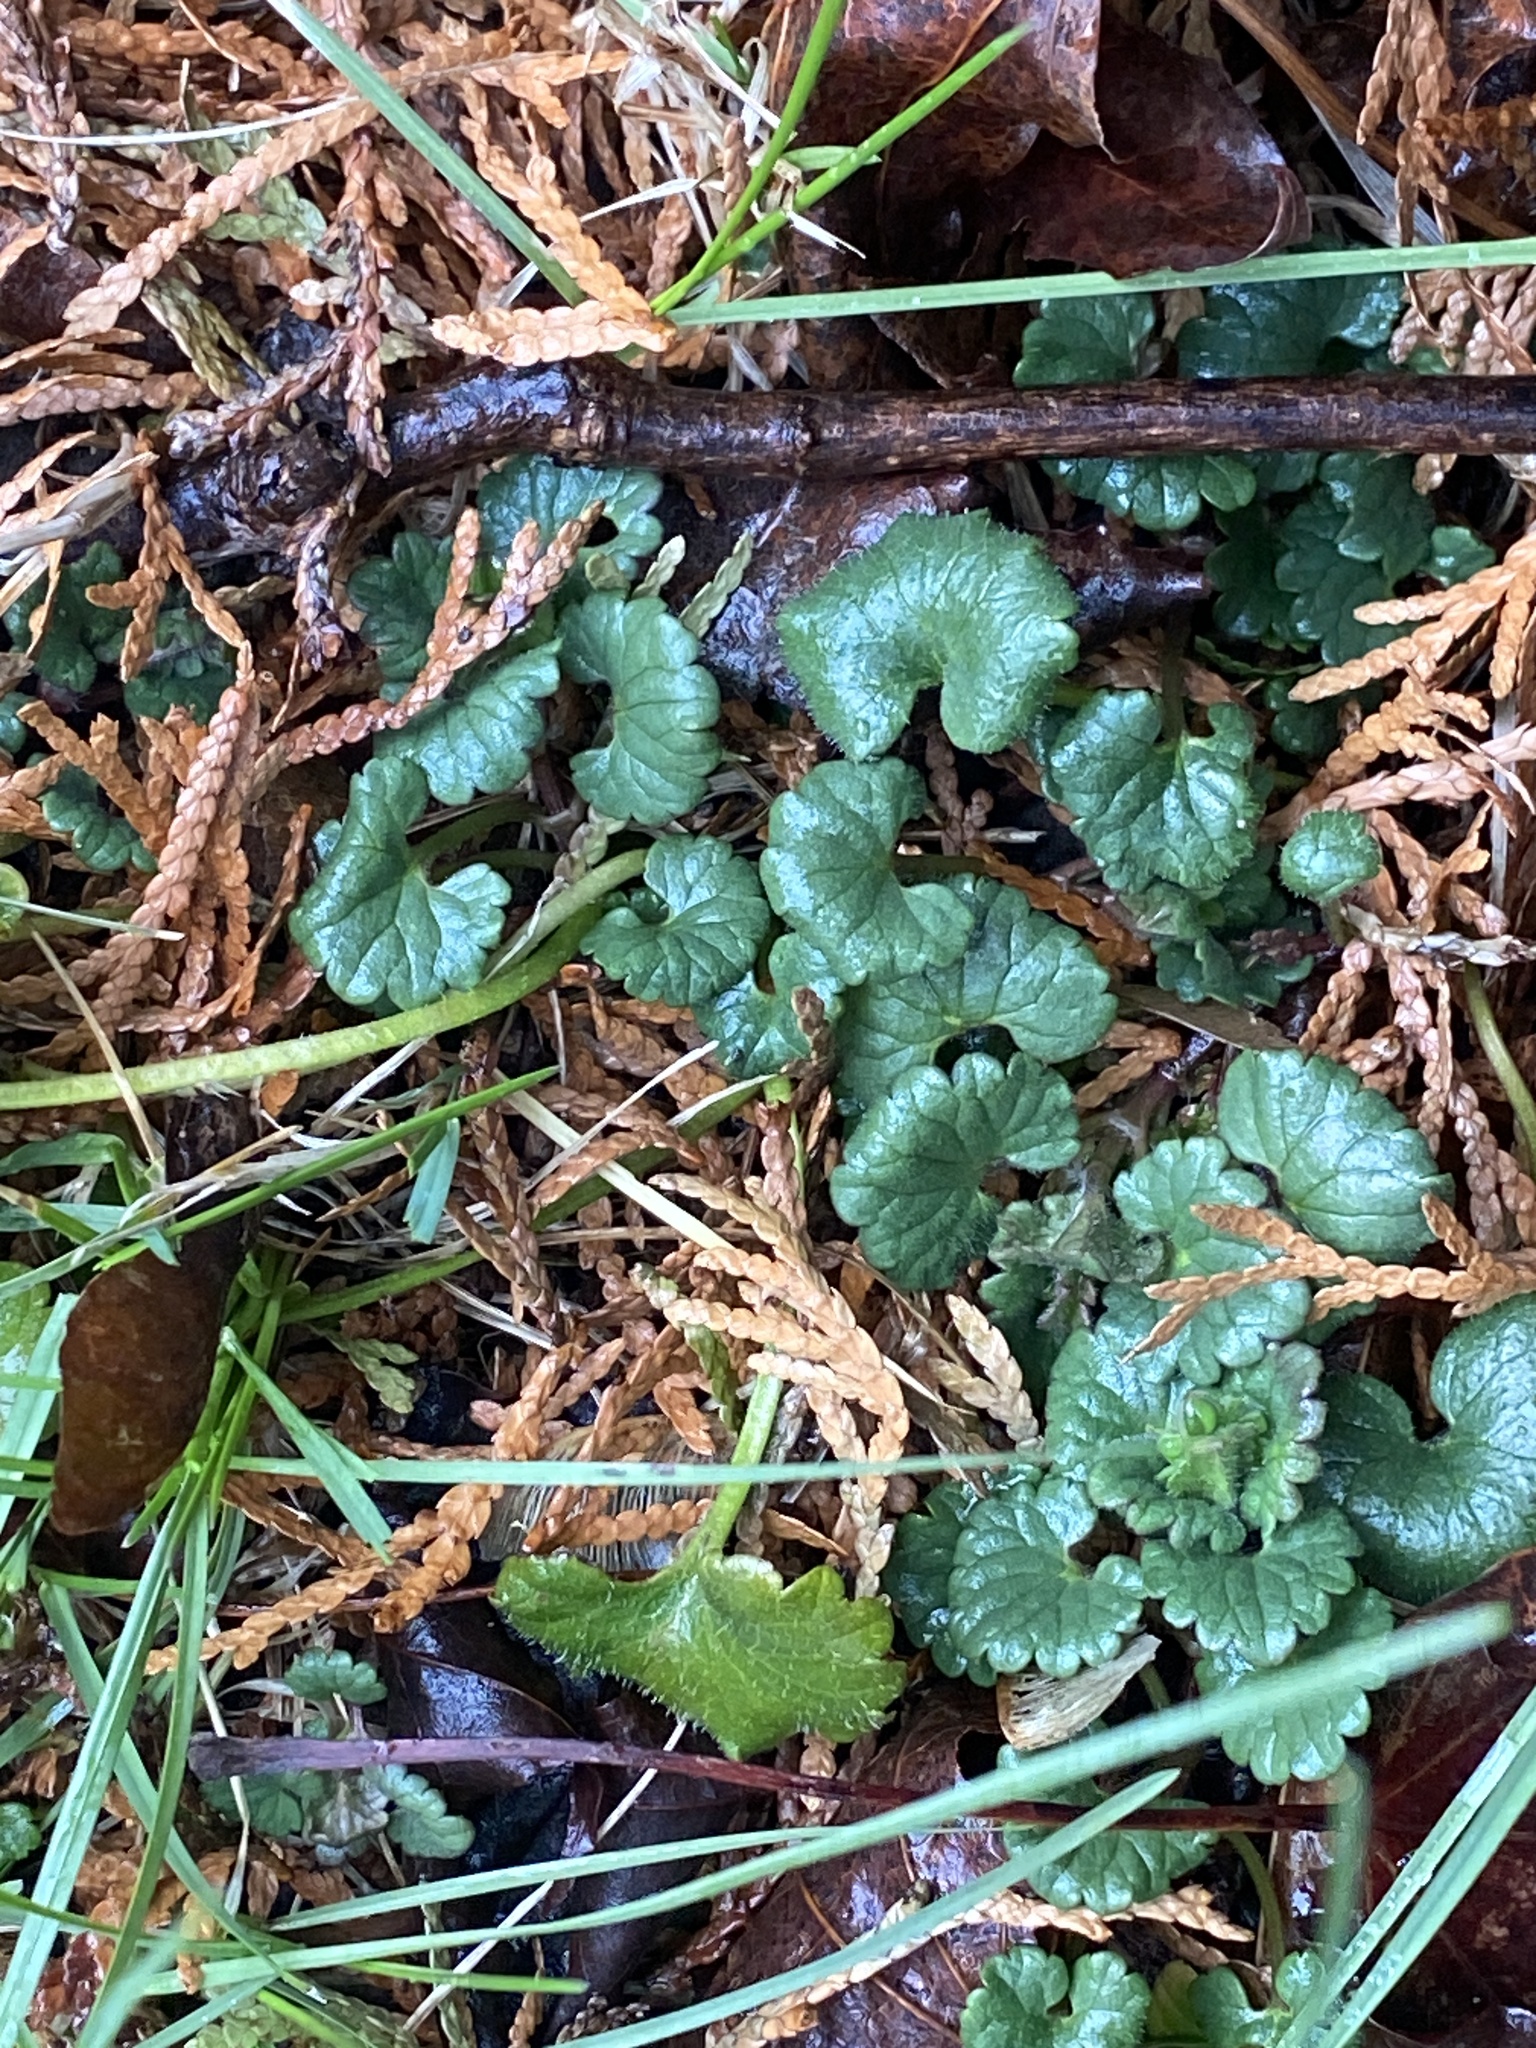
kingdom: Plantae
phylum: Tracheophyta
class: Magnoliopsida
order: Lamiales
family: Lamiaceae
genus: Glechoma
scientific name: Glechoma hederacea
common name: Ground ivy
